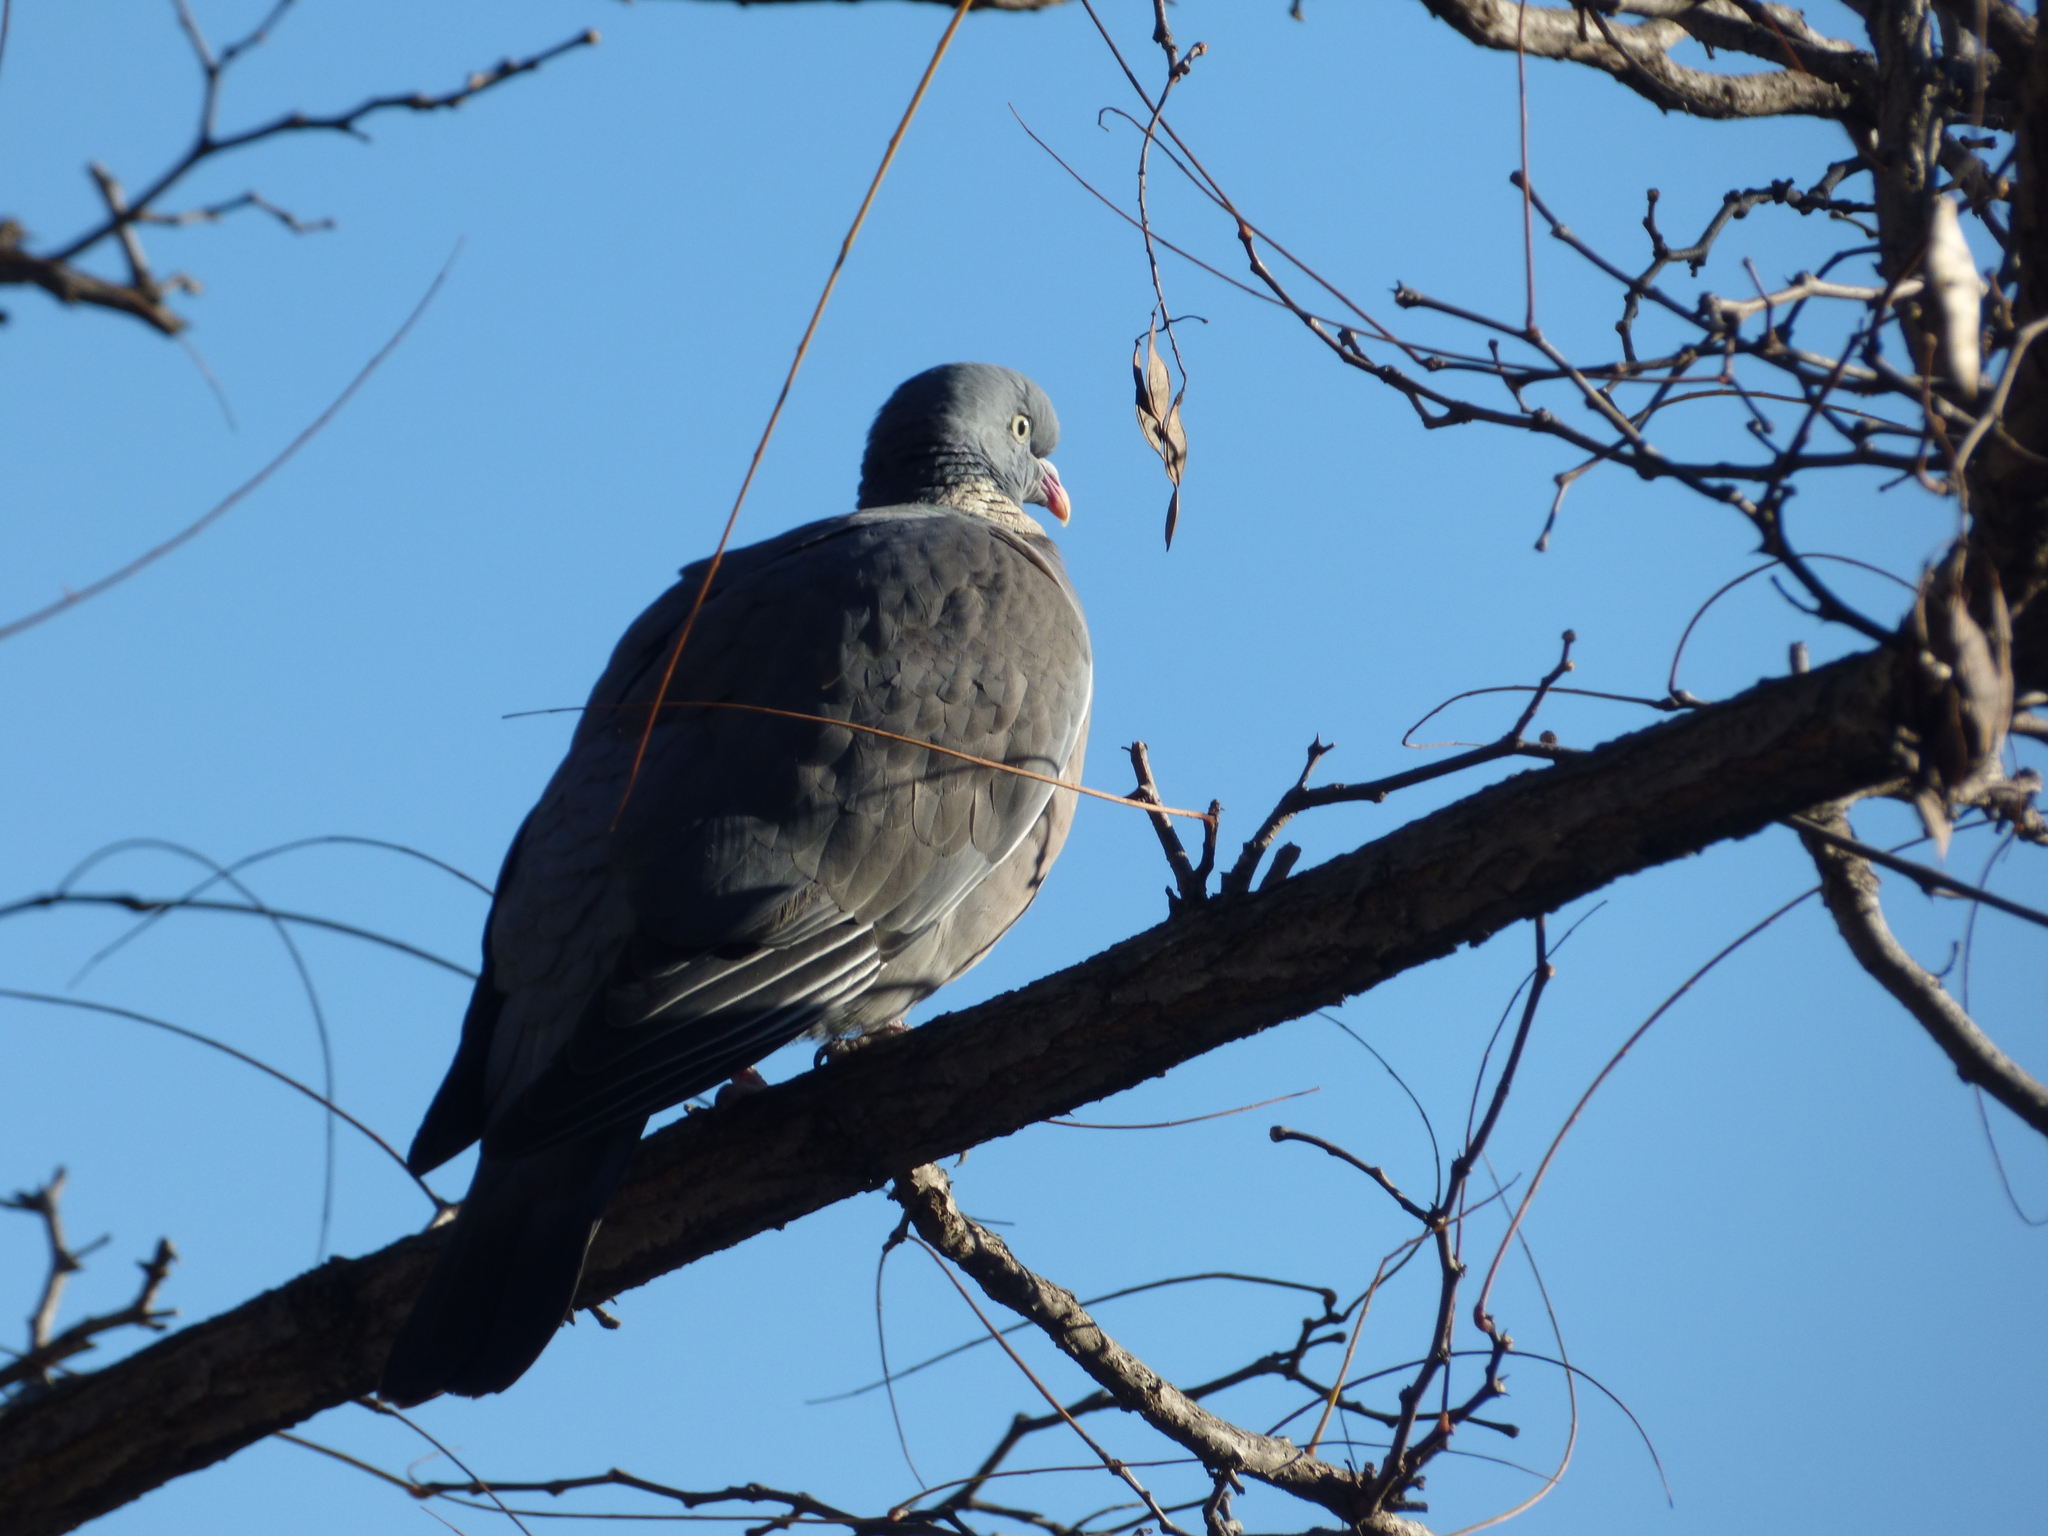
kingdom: Animalia
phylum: Chordata
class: Aves
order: Columbiformes
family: Columbidae
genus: Columba
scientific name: Columba palumbus
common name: Common wood pigeon
